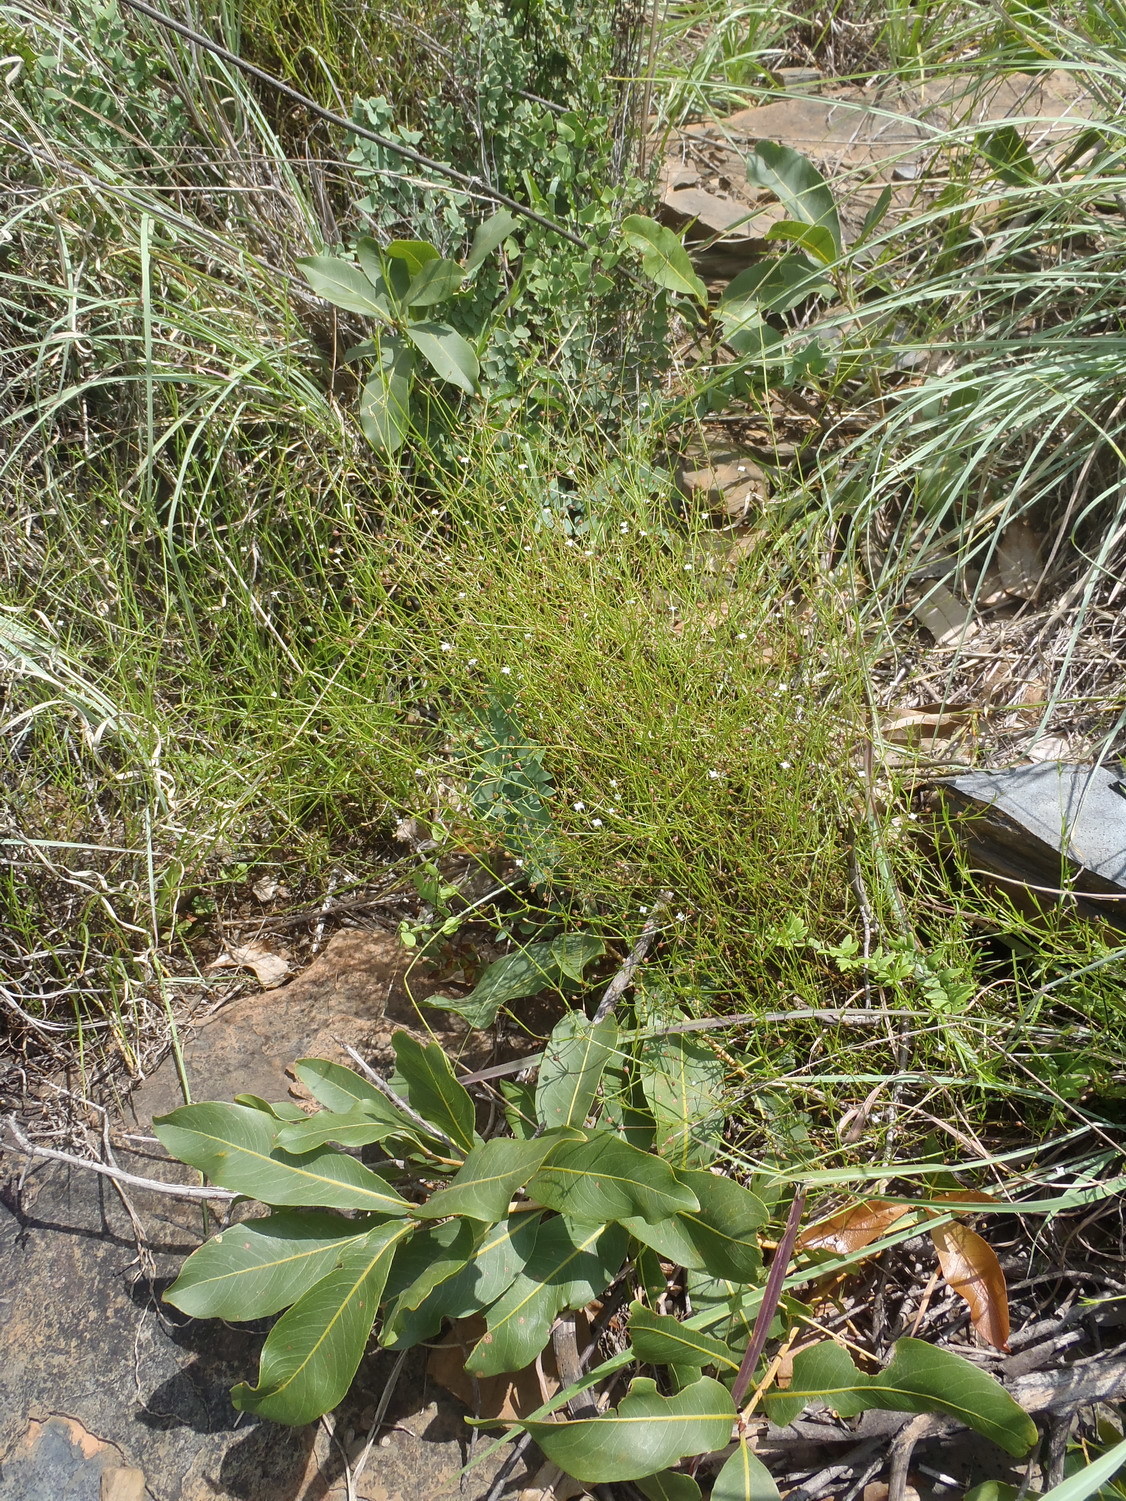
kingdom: Plantae
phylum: Tracheophyta
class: Magnoliopsida
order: Gentianales
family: Rubiaceae
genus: Oldenlandia
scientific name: Oldenlandia herbacea
